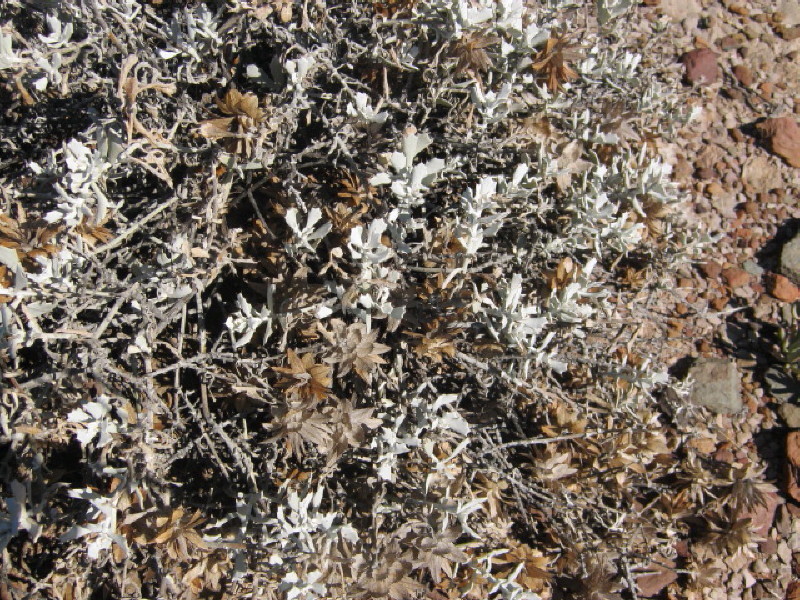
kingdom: Plantae
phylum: Tracheophyta
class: Magnoliopsida
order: Asterales
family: Asteraceae
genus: Berkheya
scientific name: Berkheya cuneata
